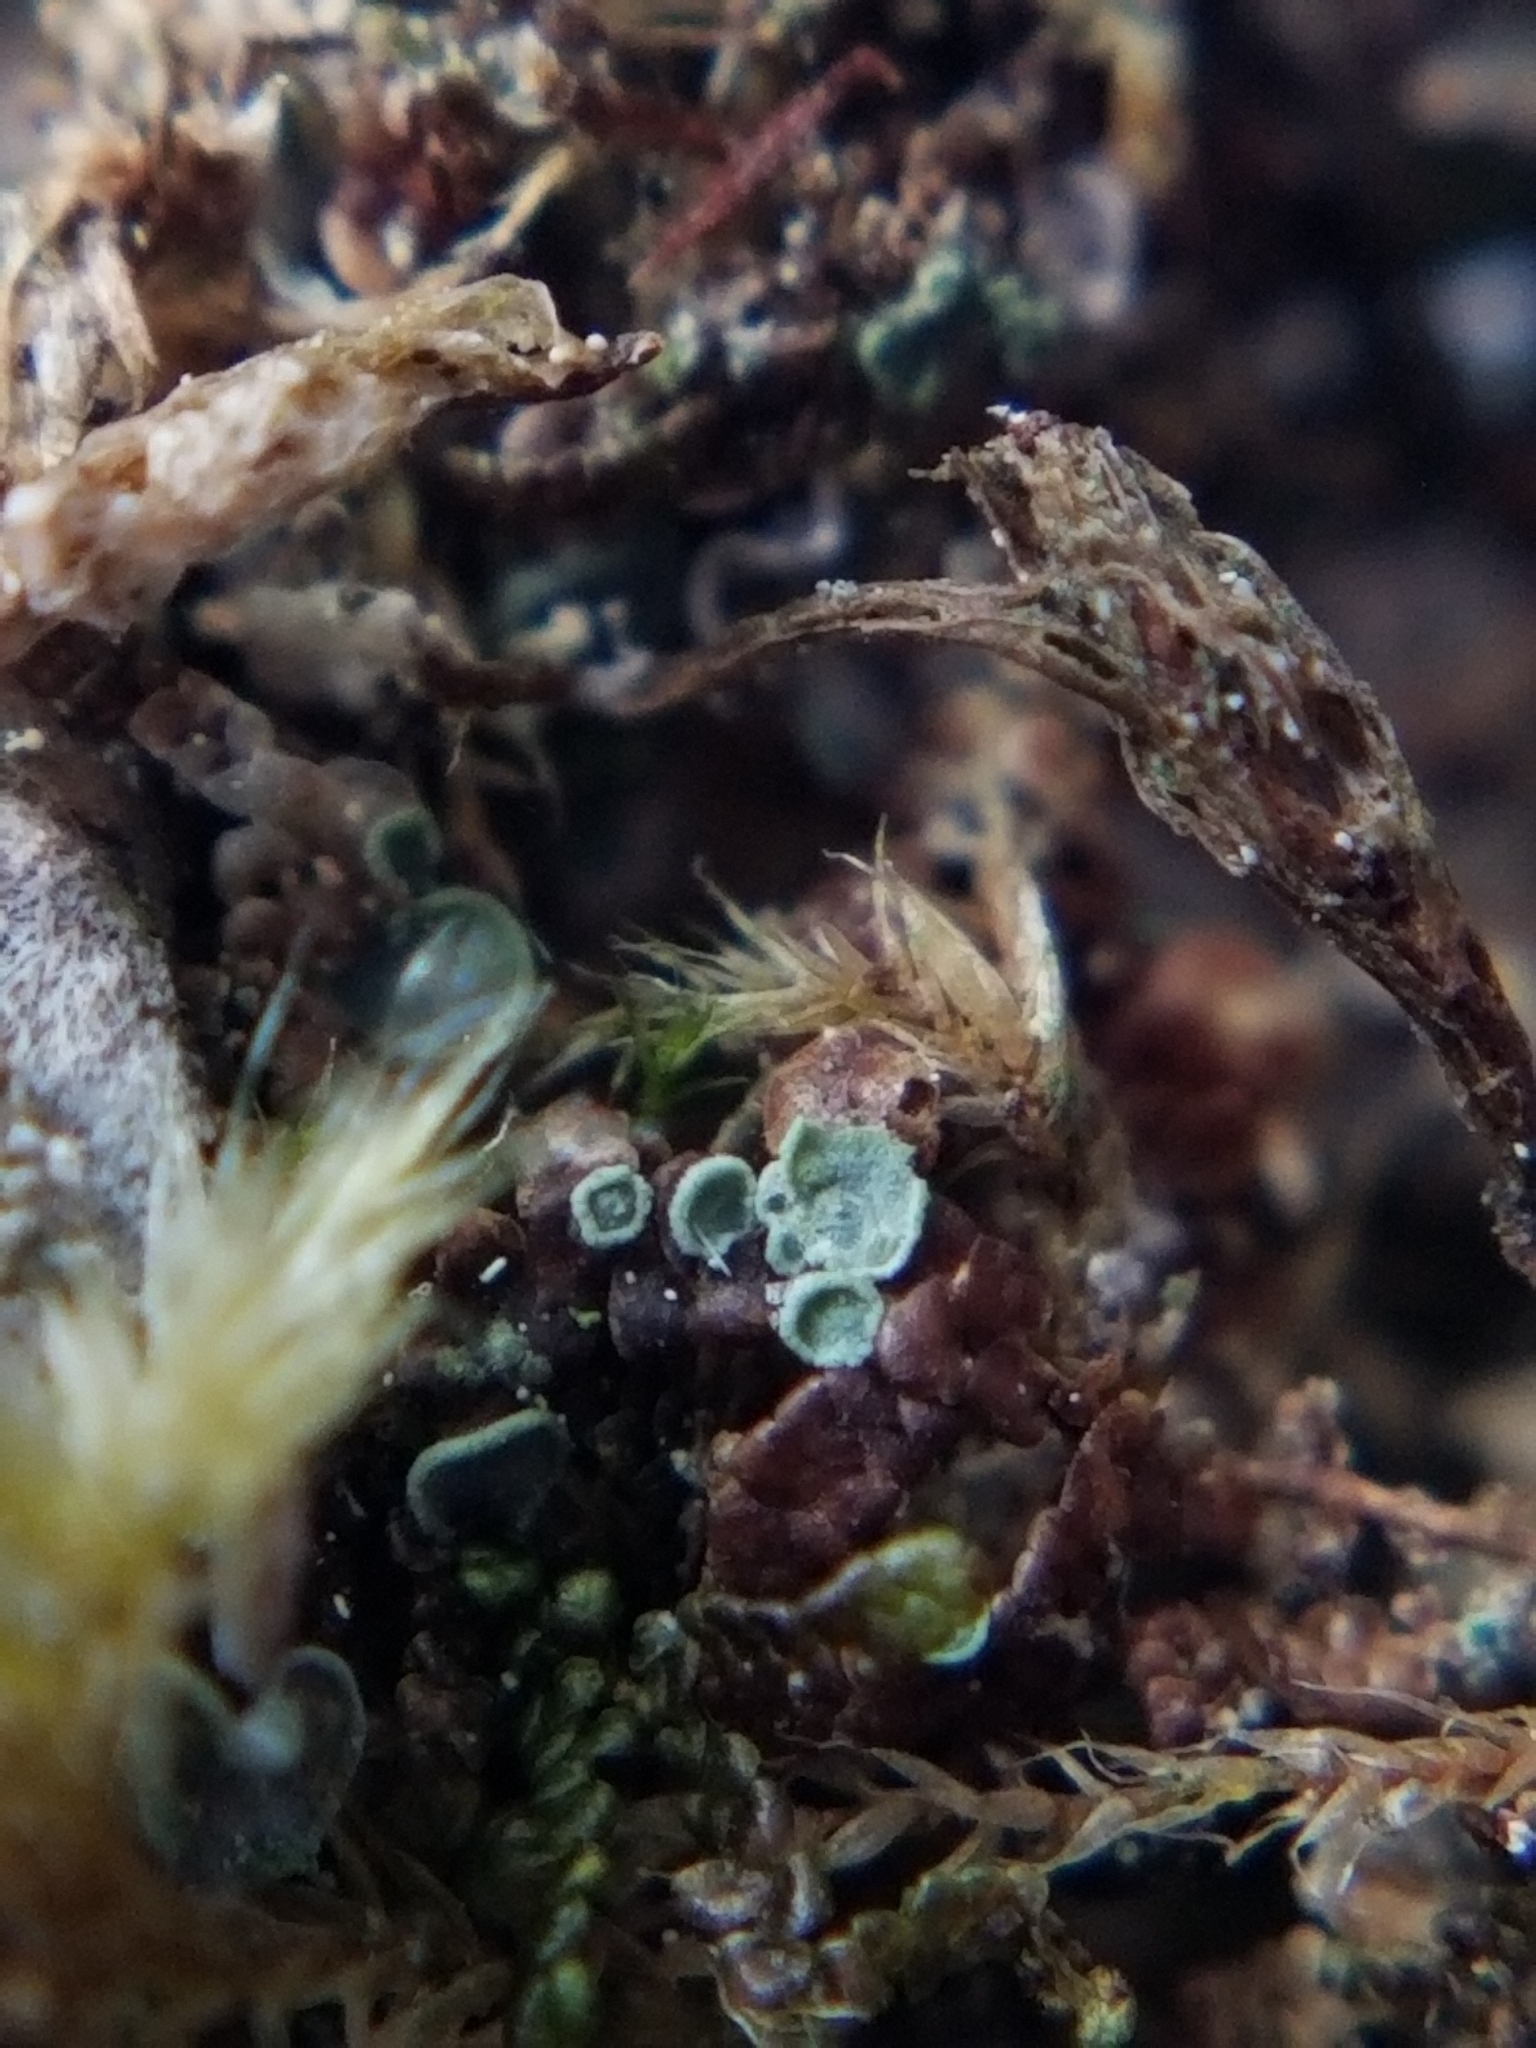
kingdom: Fungi
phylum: Ascomycota
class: Eurotiomycetes
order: Verrucariales
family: Verrucariaceae
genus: Normandina
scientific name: Normandina pulchella
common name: Elf ears lichen
